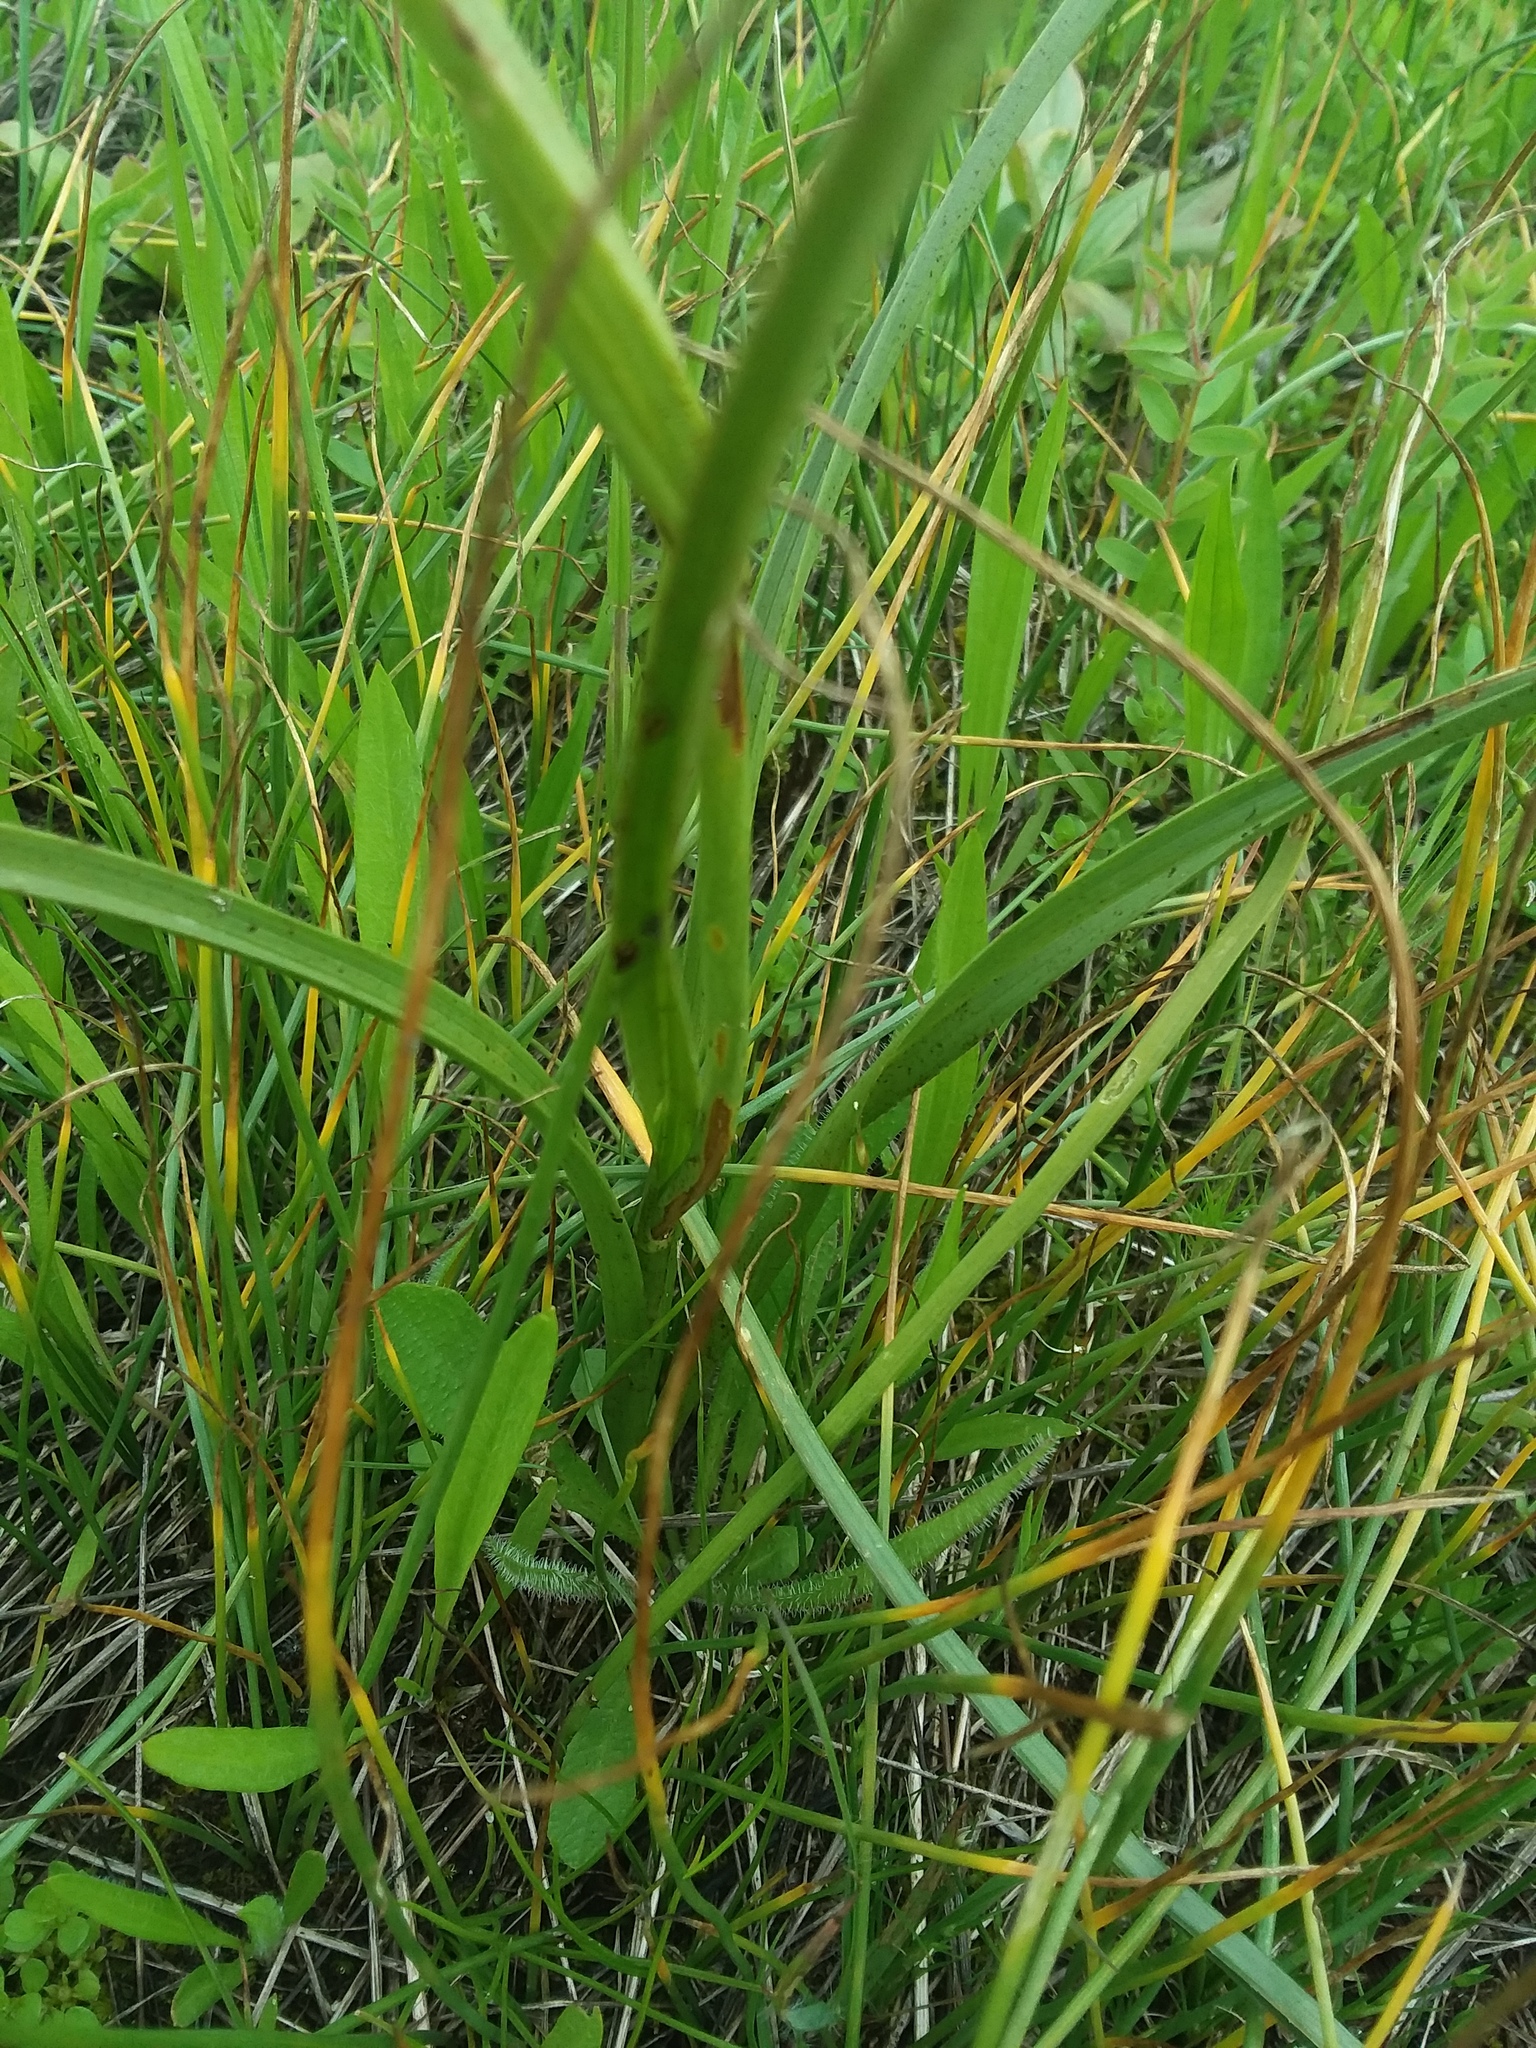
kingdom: Plantae
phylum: Tracheophyta
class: Liliopsida
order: Liliales
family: Melanthiaceae
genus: Toxicoscordion
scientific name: Toxicoscordion venenosum
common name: Meadow death camas
